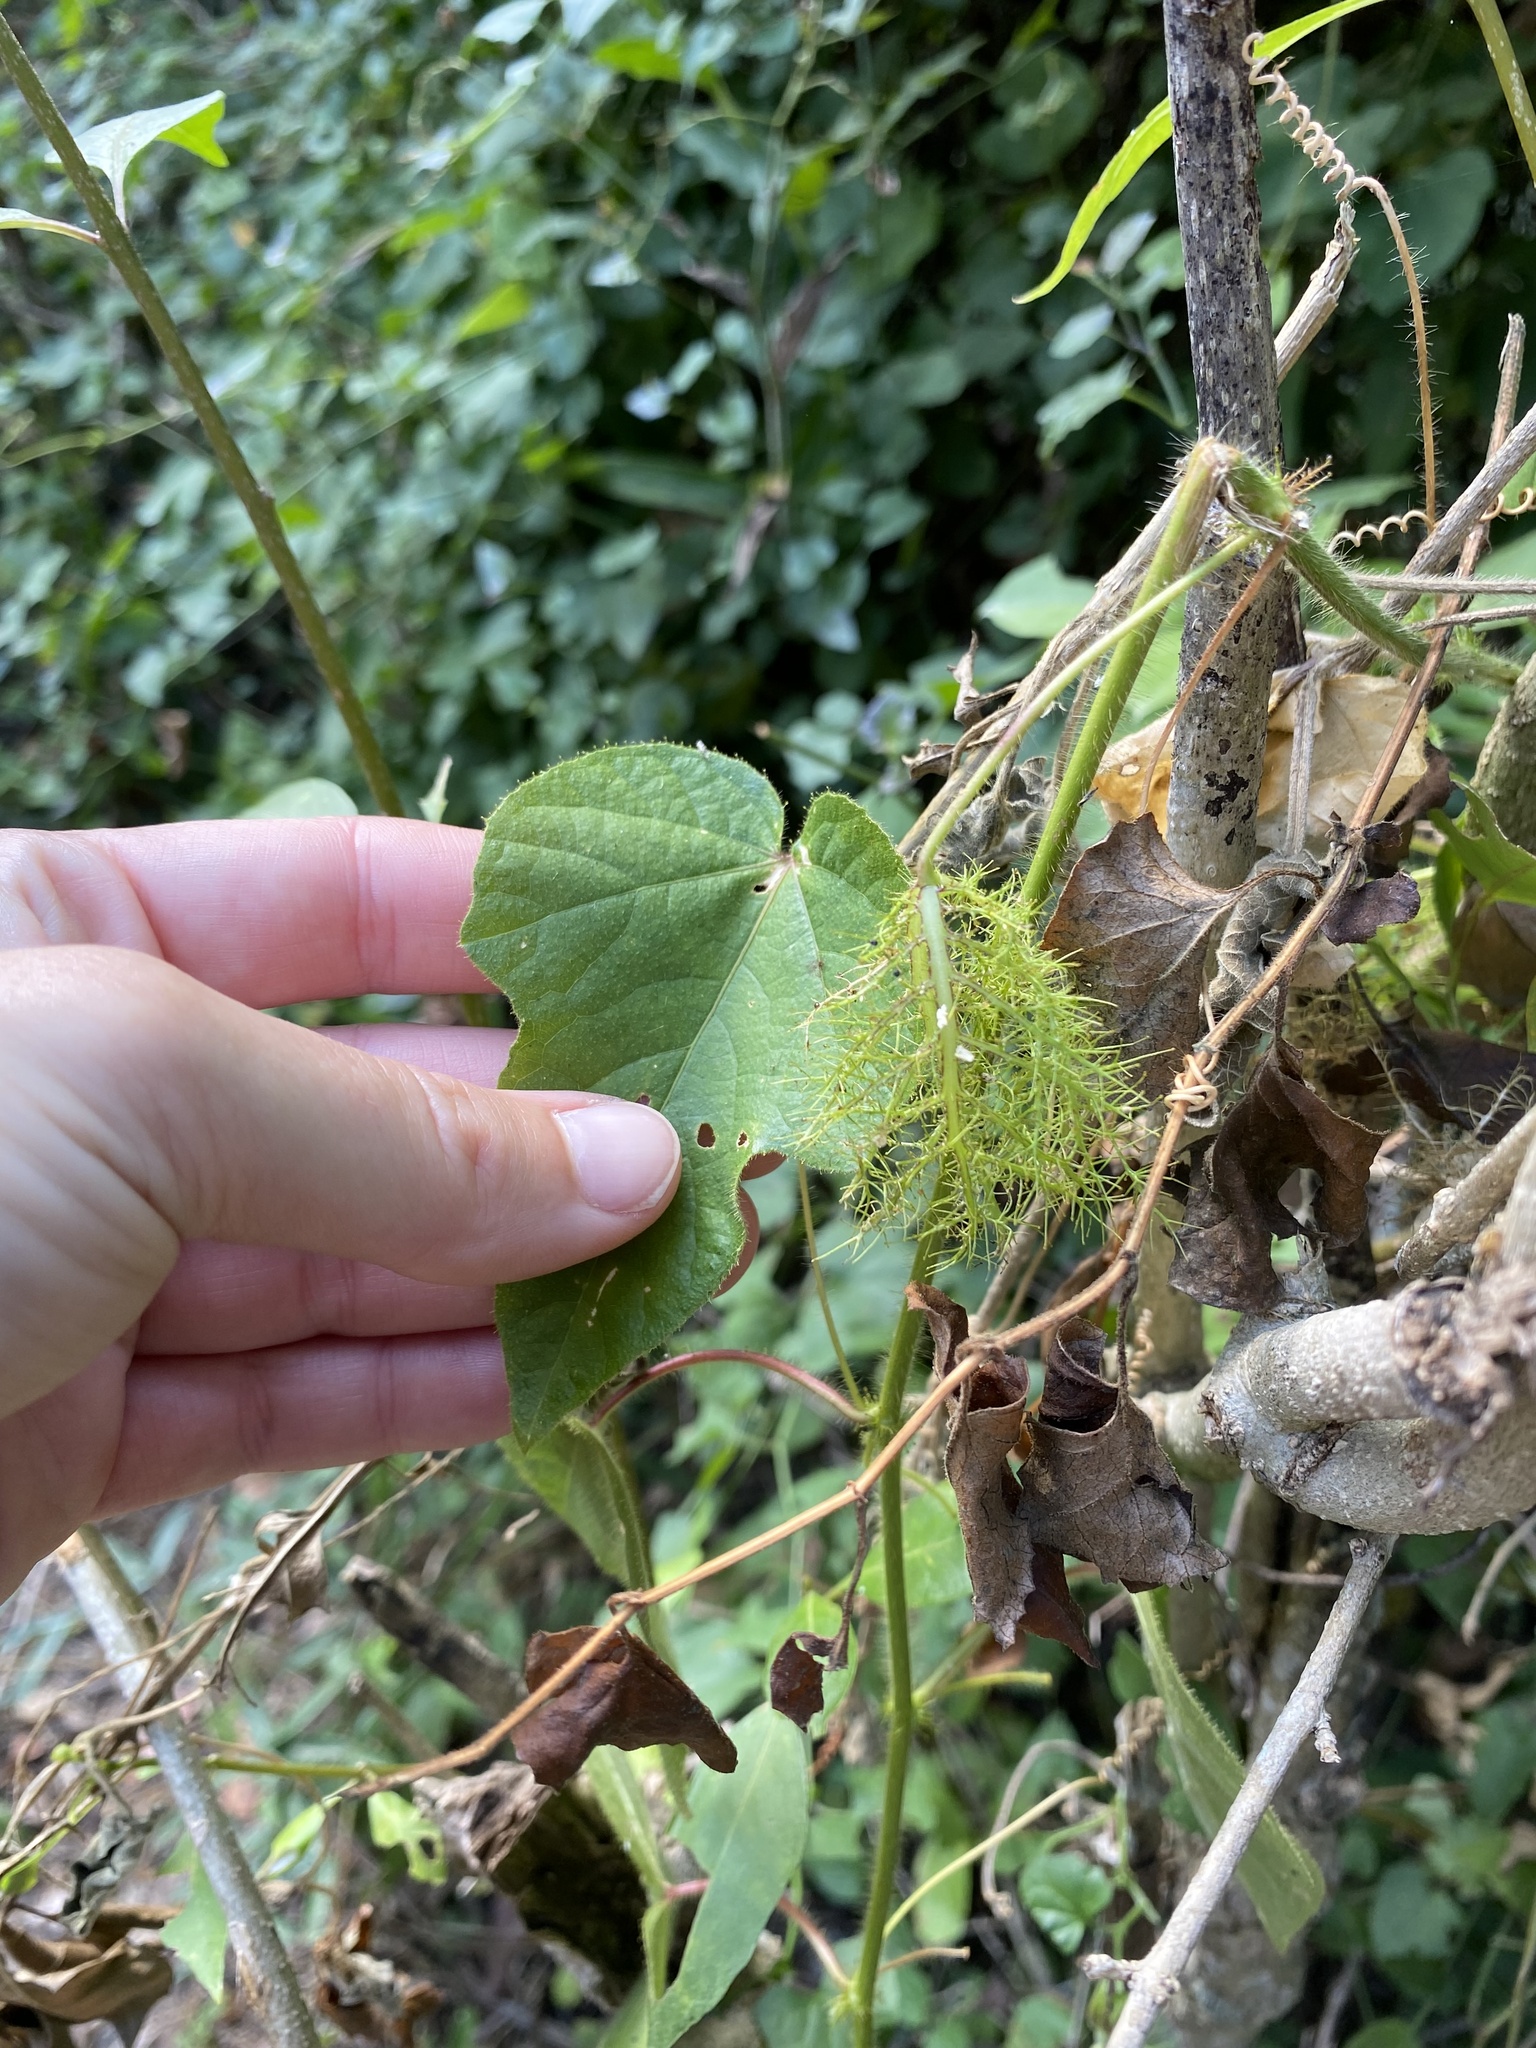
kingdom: Plantae
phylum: Tracheophyta
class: Magnoliopsida
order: Malpighiales
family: Passifloraceae
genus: Passiflora
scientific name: Passiflora vesicaria
